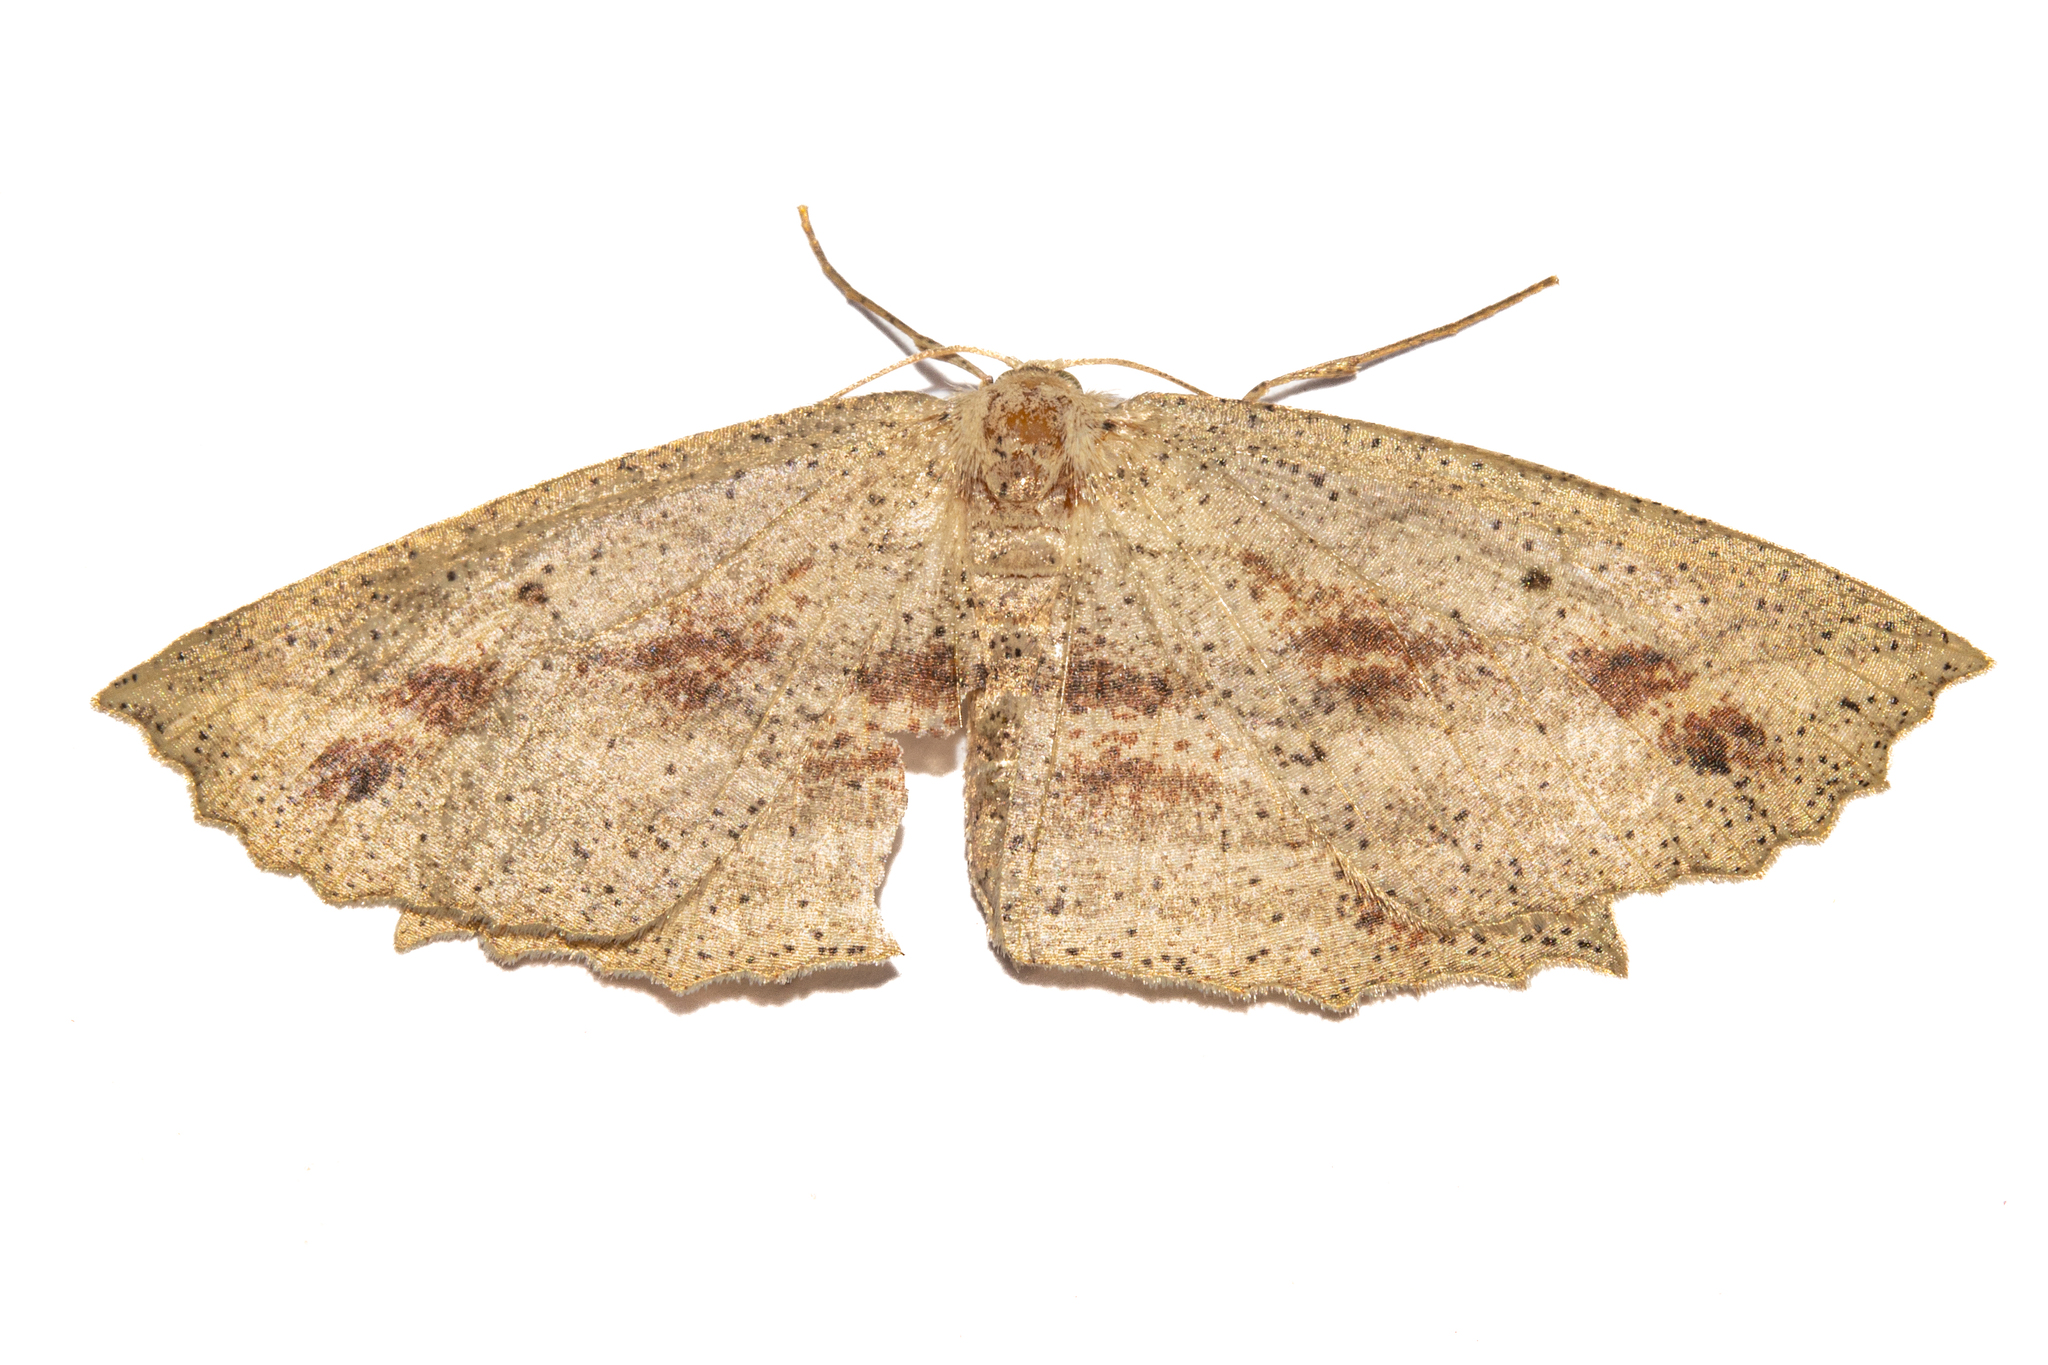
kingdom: Animalia
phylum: Arthropoda
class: Insecta
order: Lepidoptera
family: Geometridae
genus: Xyridacma
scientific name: Xyridacma veronicae
